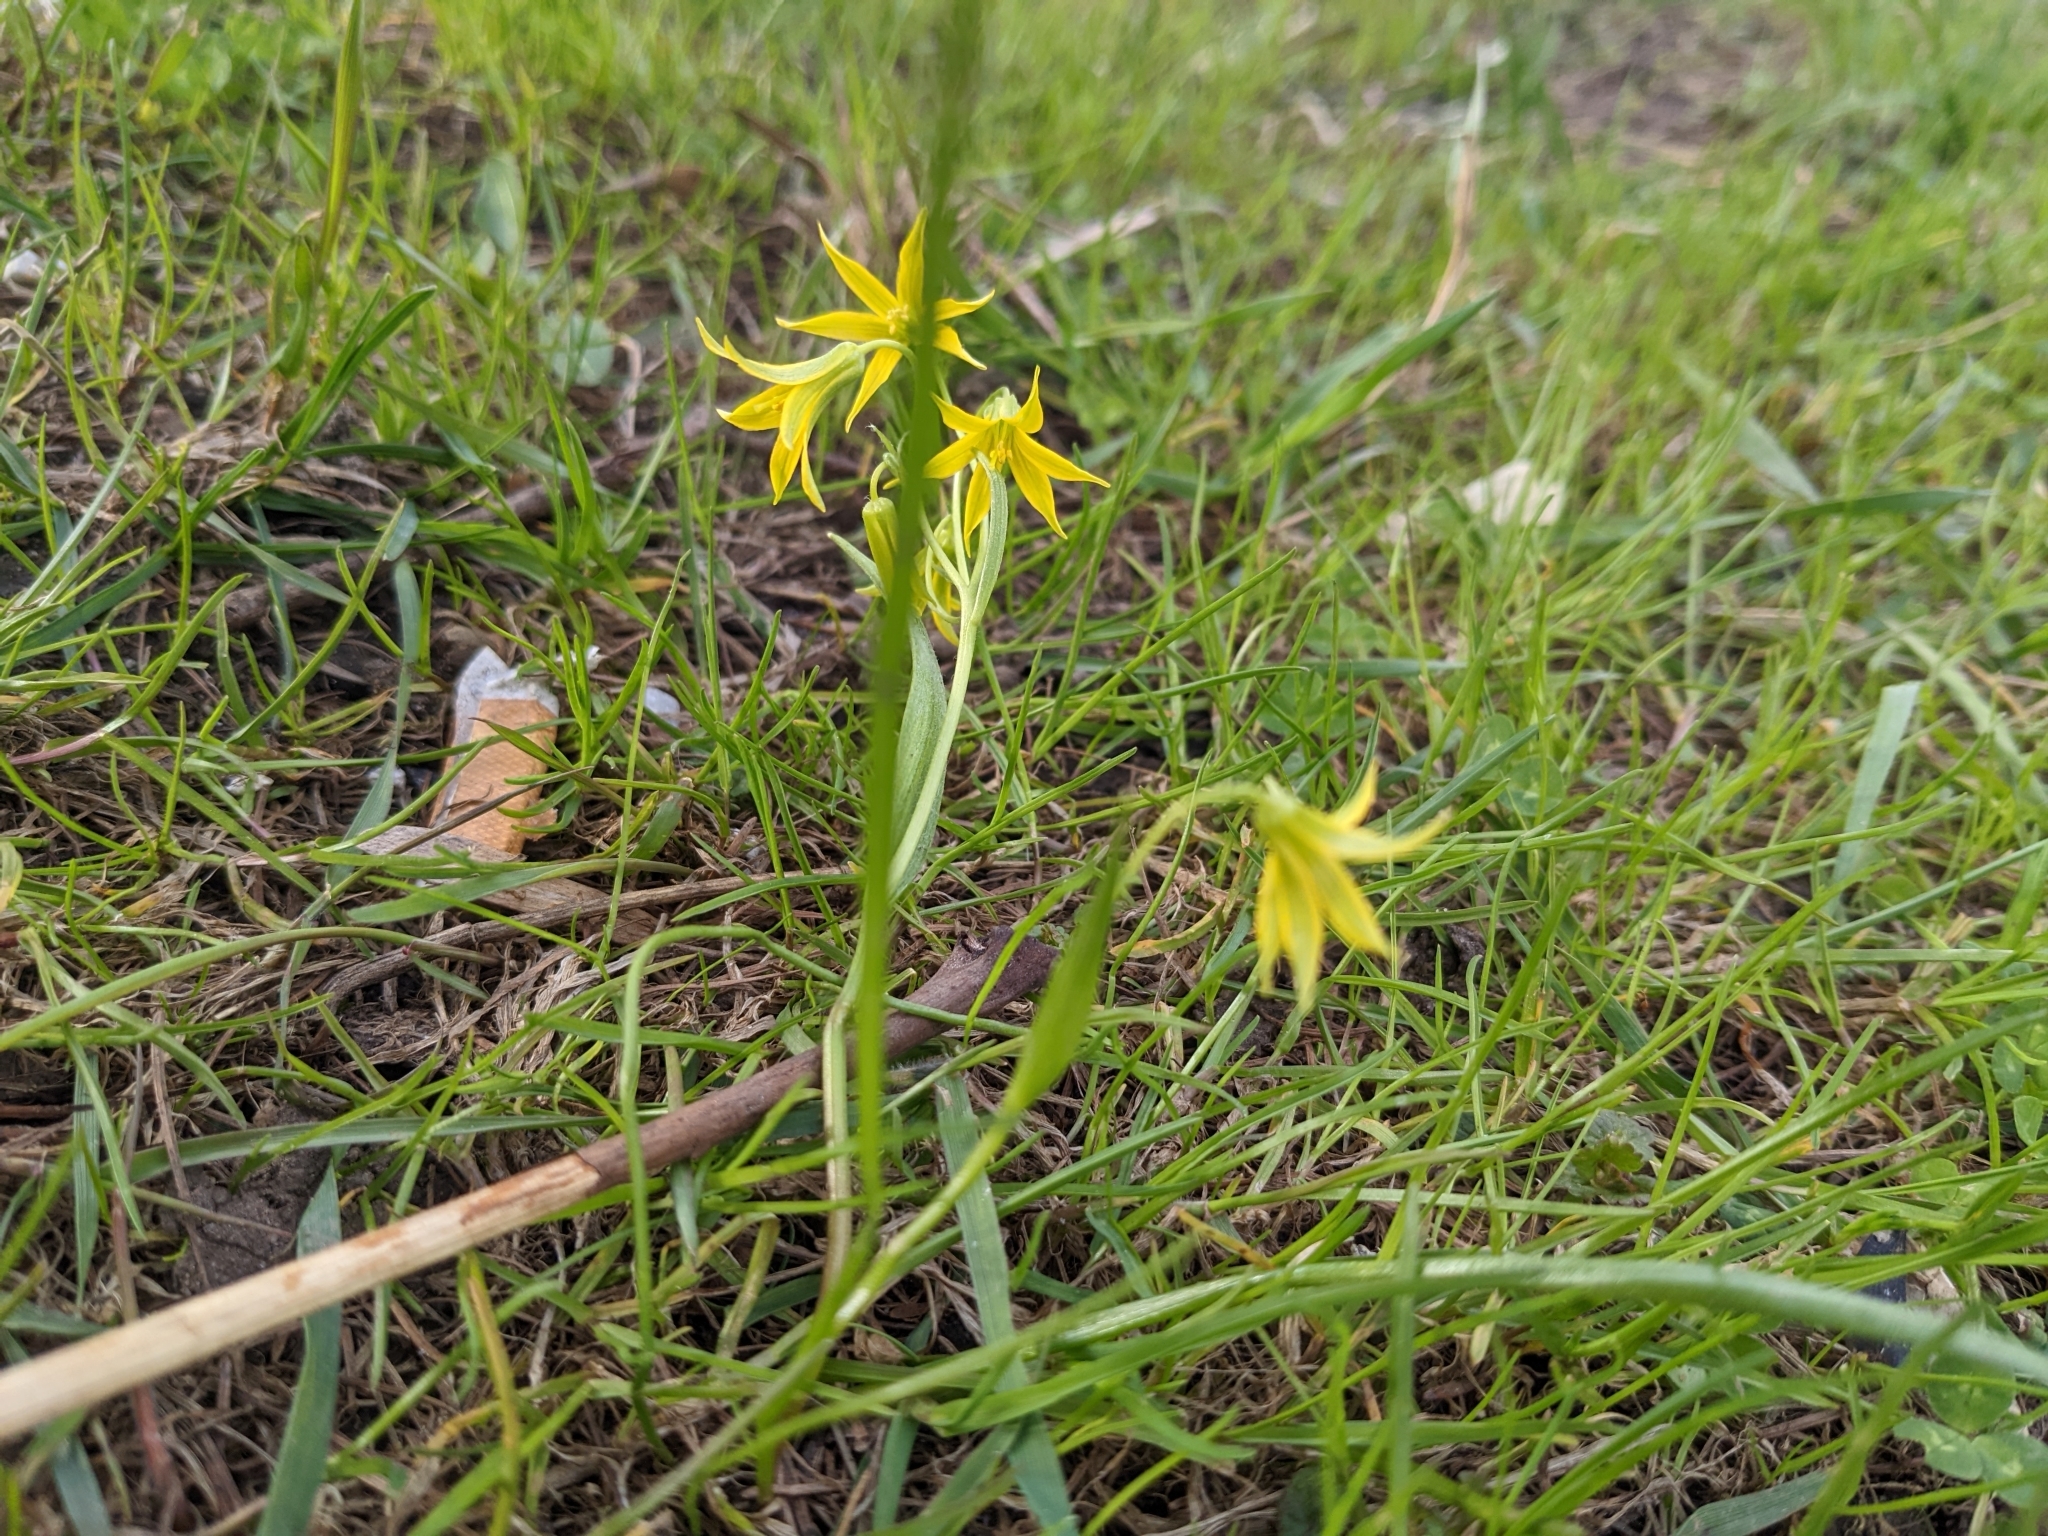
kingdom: Plantae
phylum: Tracheophyta
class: Liliopsida
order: Liliales
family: Liliaceae
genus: Gagea
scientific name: Gagea minima
